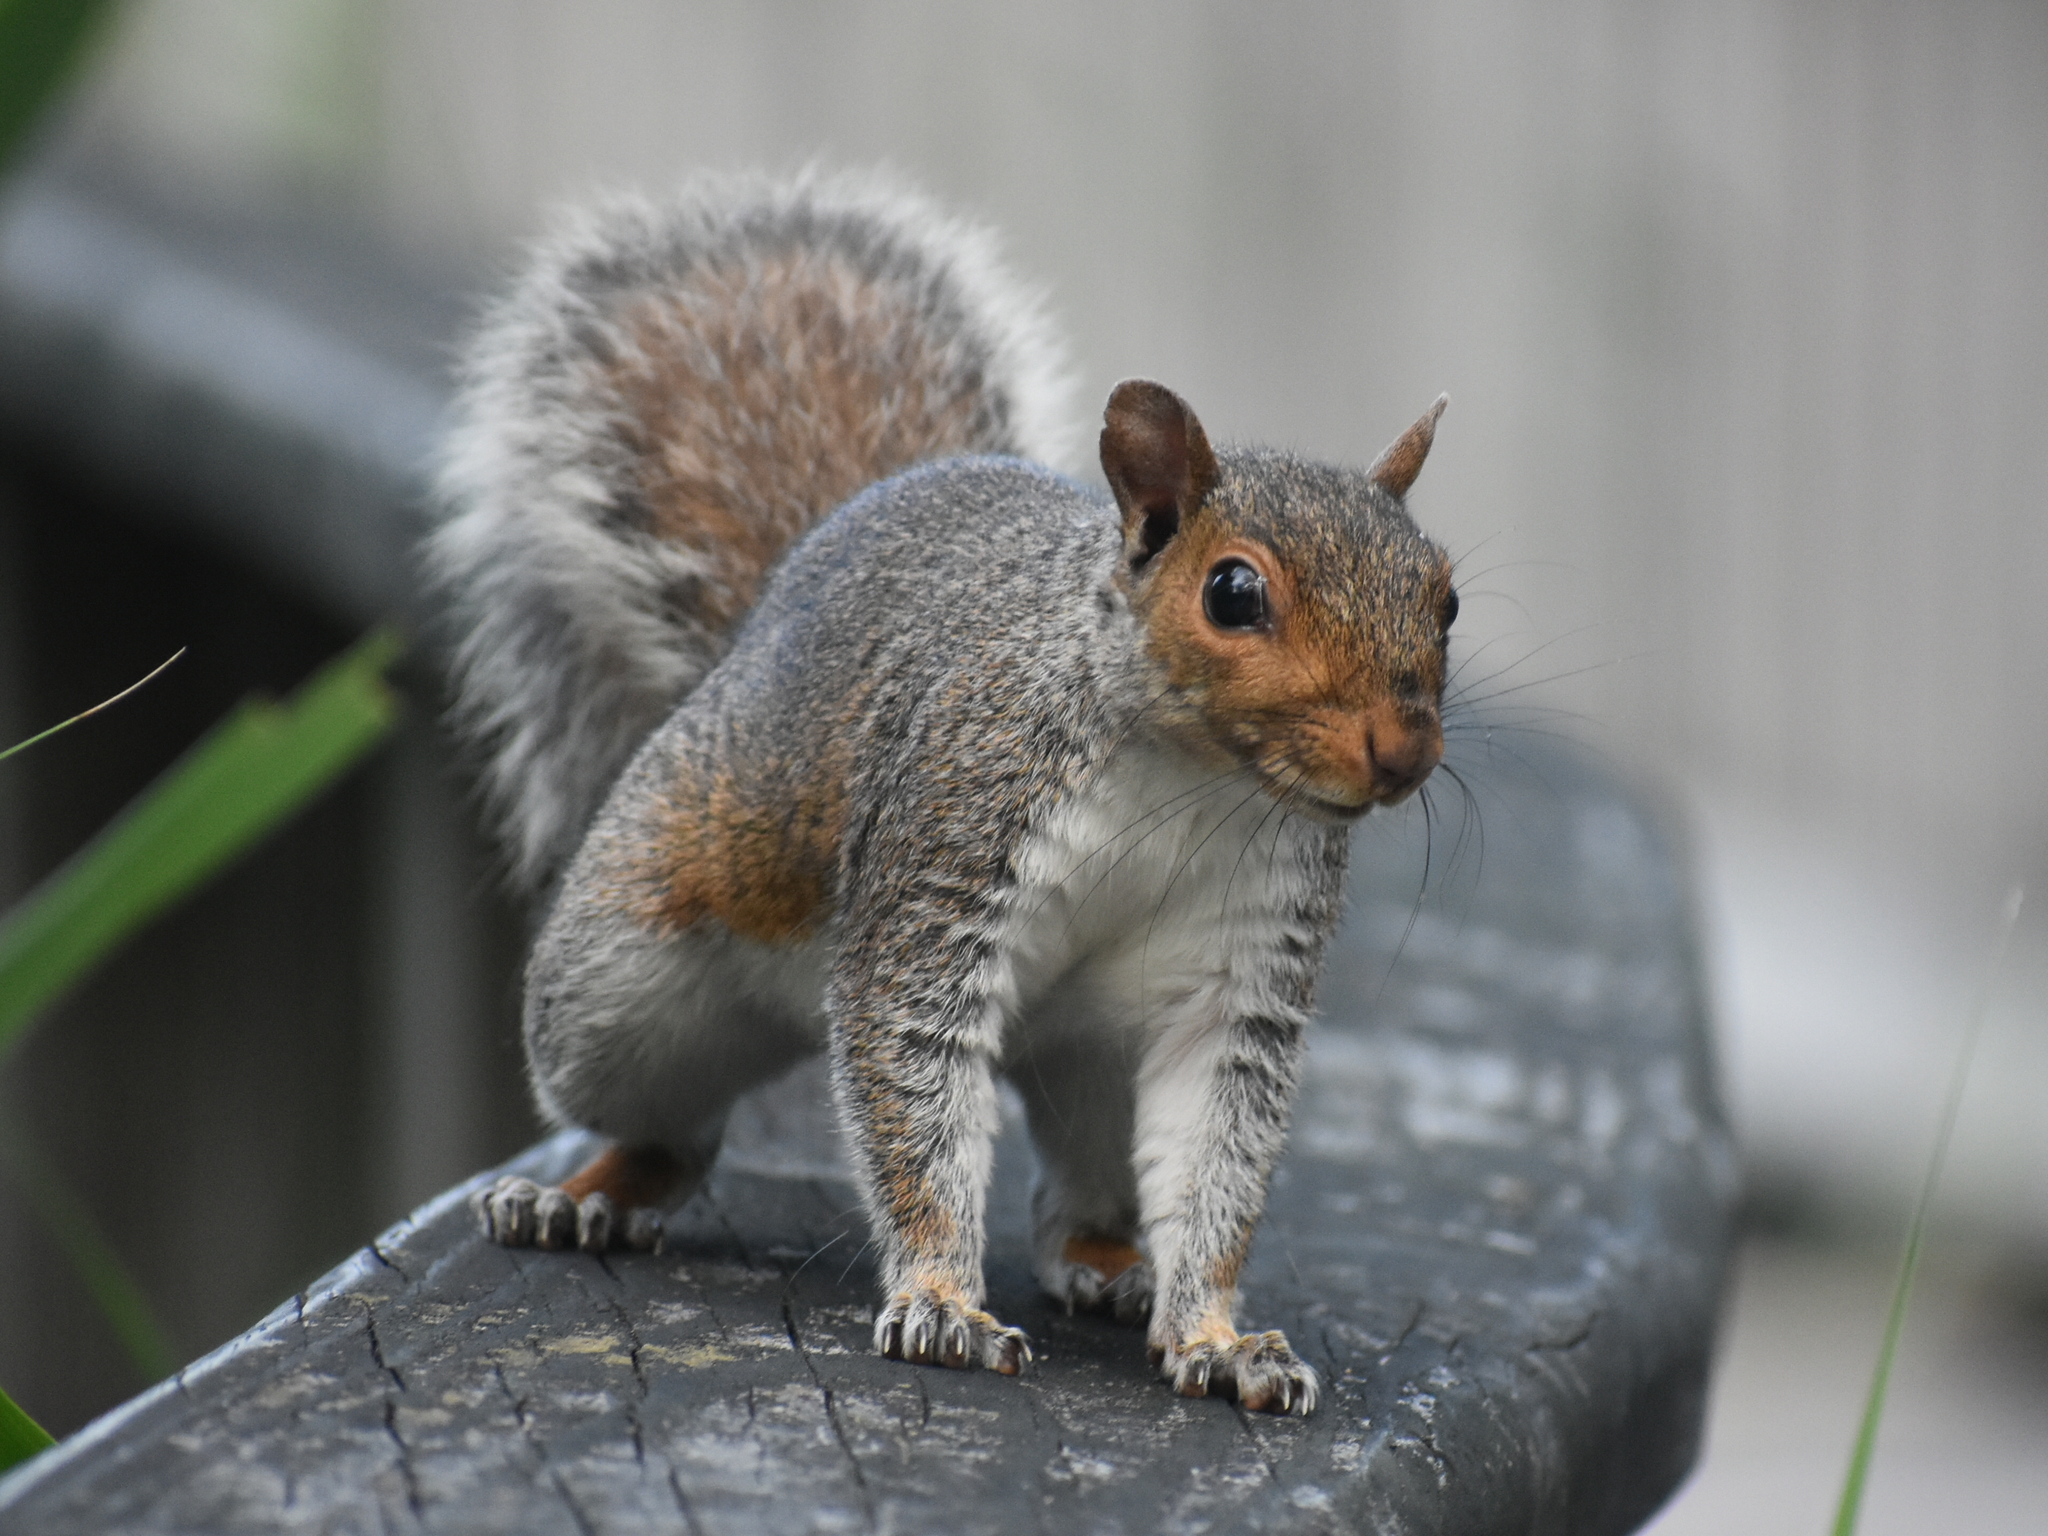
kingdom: Animalia
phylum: Chordata
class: Mammalia
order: Rodentia
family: Sciuridae
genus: Sciurus
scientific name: Sciurus carolinensis
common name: Eastern gray squirrel
